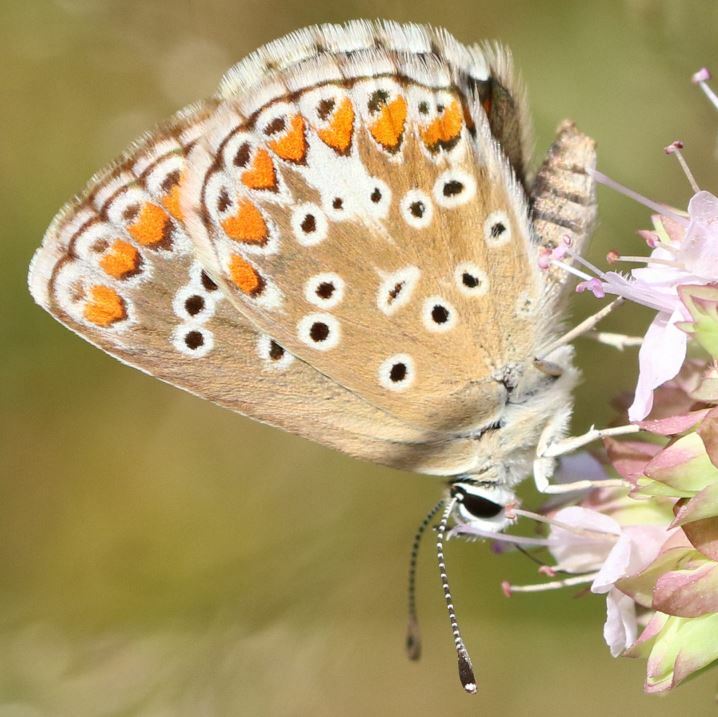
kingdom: Animalia
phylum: Arthropoda
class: Insecta
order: Lepidoptera
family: Lycaenidae
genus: Aricia
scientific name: Aricia agestis
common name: Brown argus
